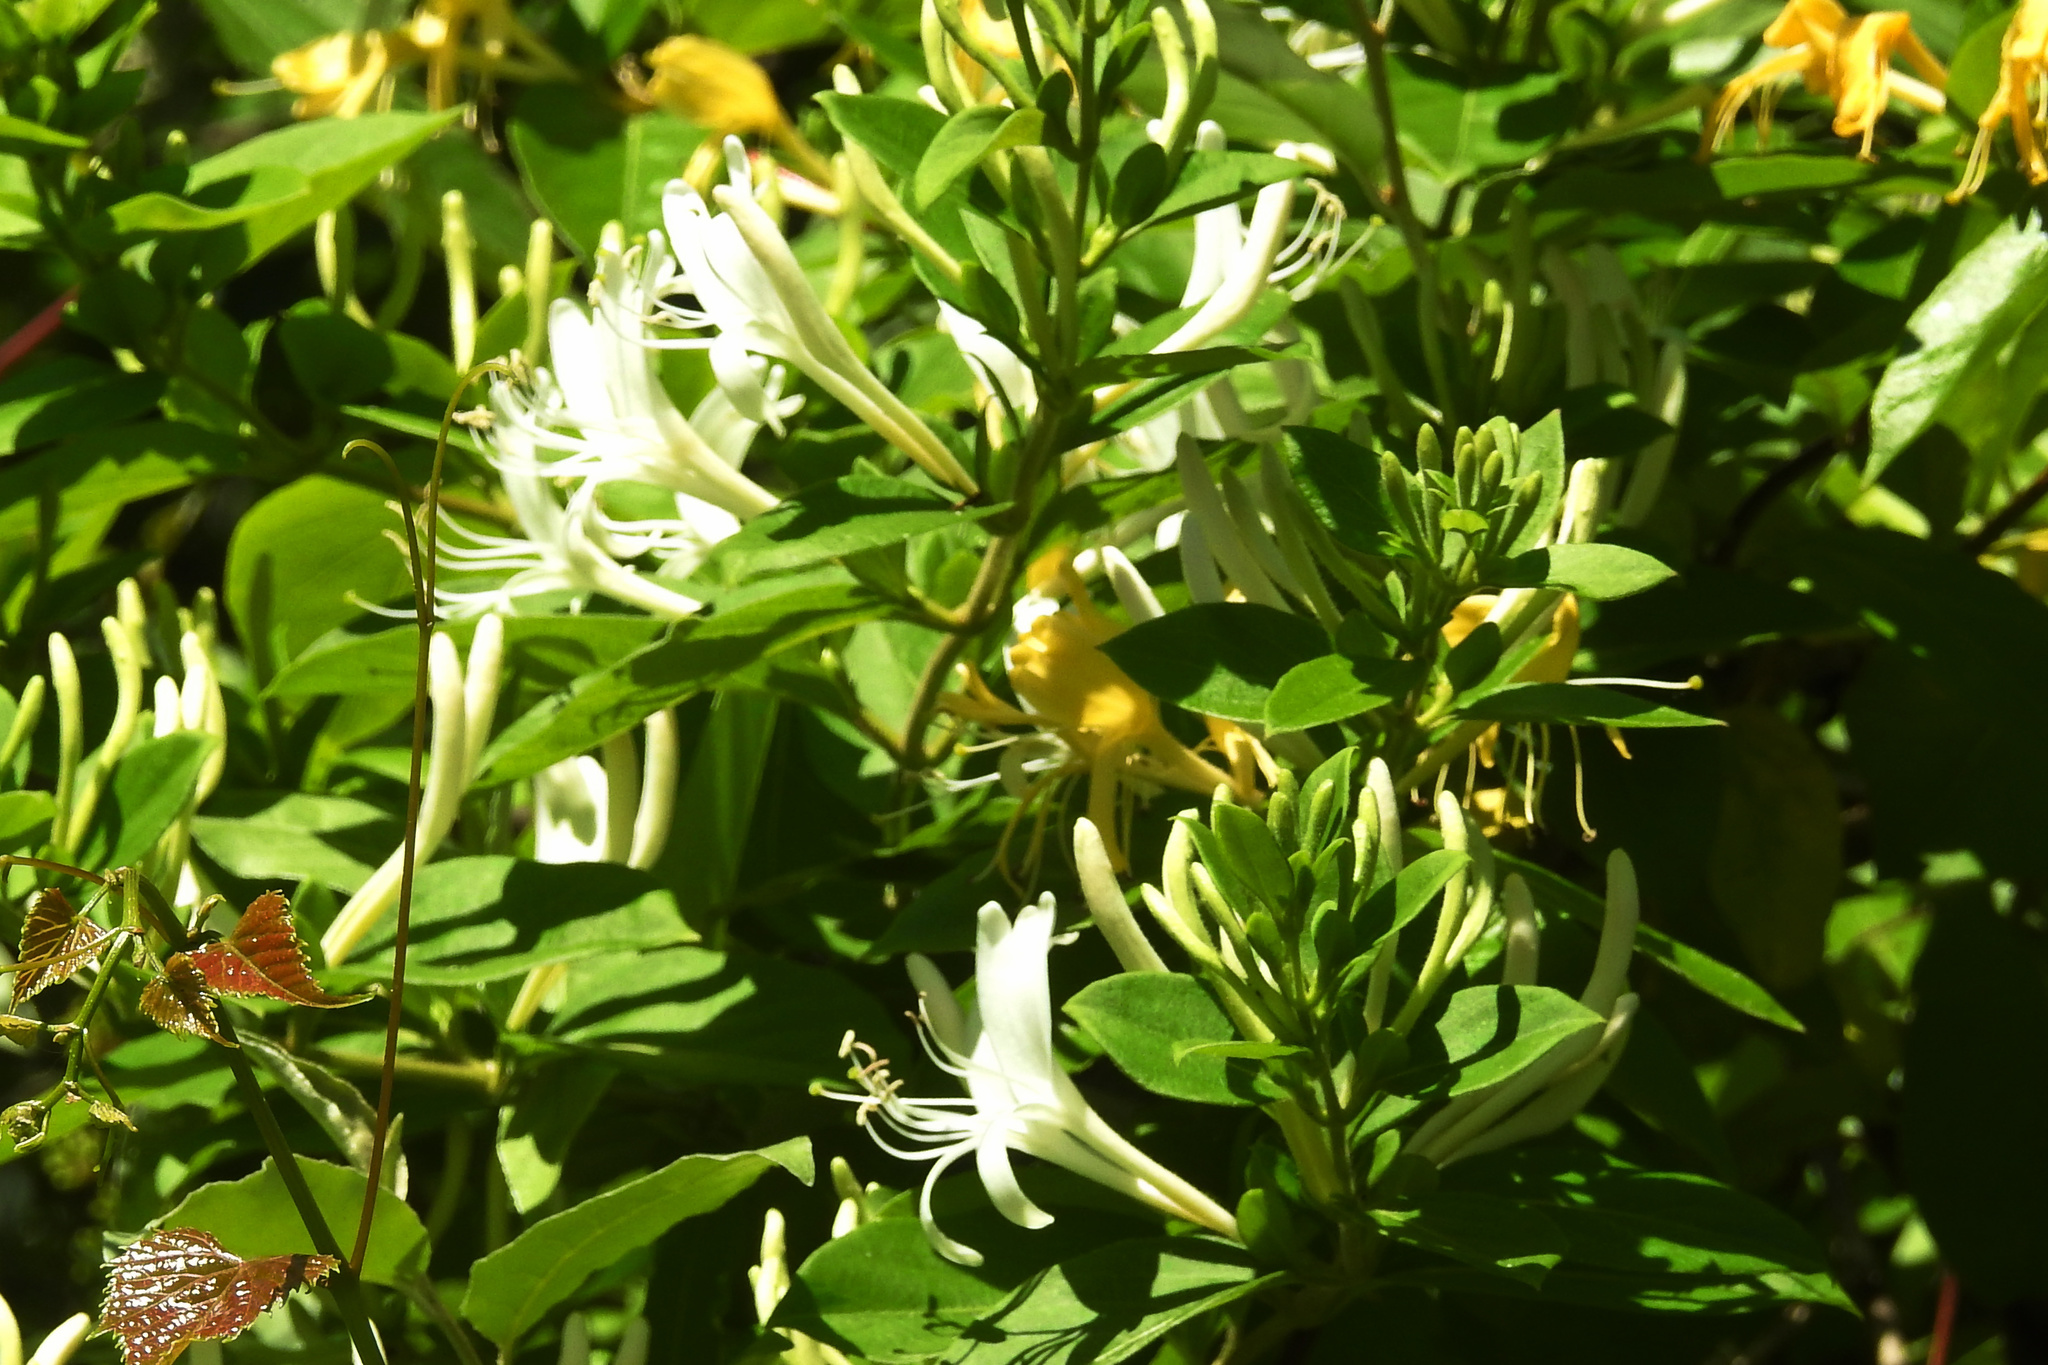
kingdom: Plantae
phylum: Tracheophyta
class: Magnoliopsida
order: Dipsacales
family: Caprifoliaceae
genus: Lonicera
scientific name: Lonicera japonica
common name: Japanese honeysuckle
